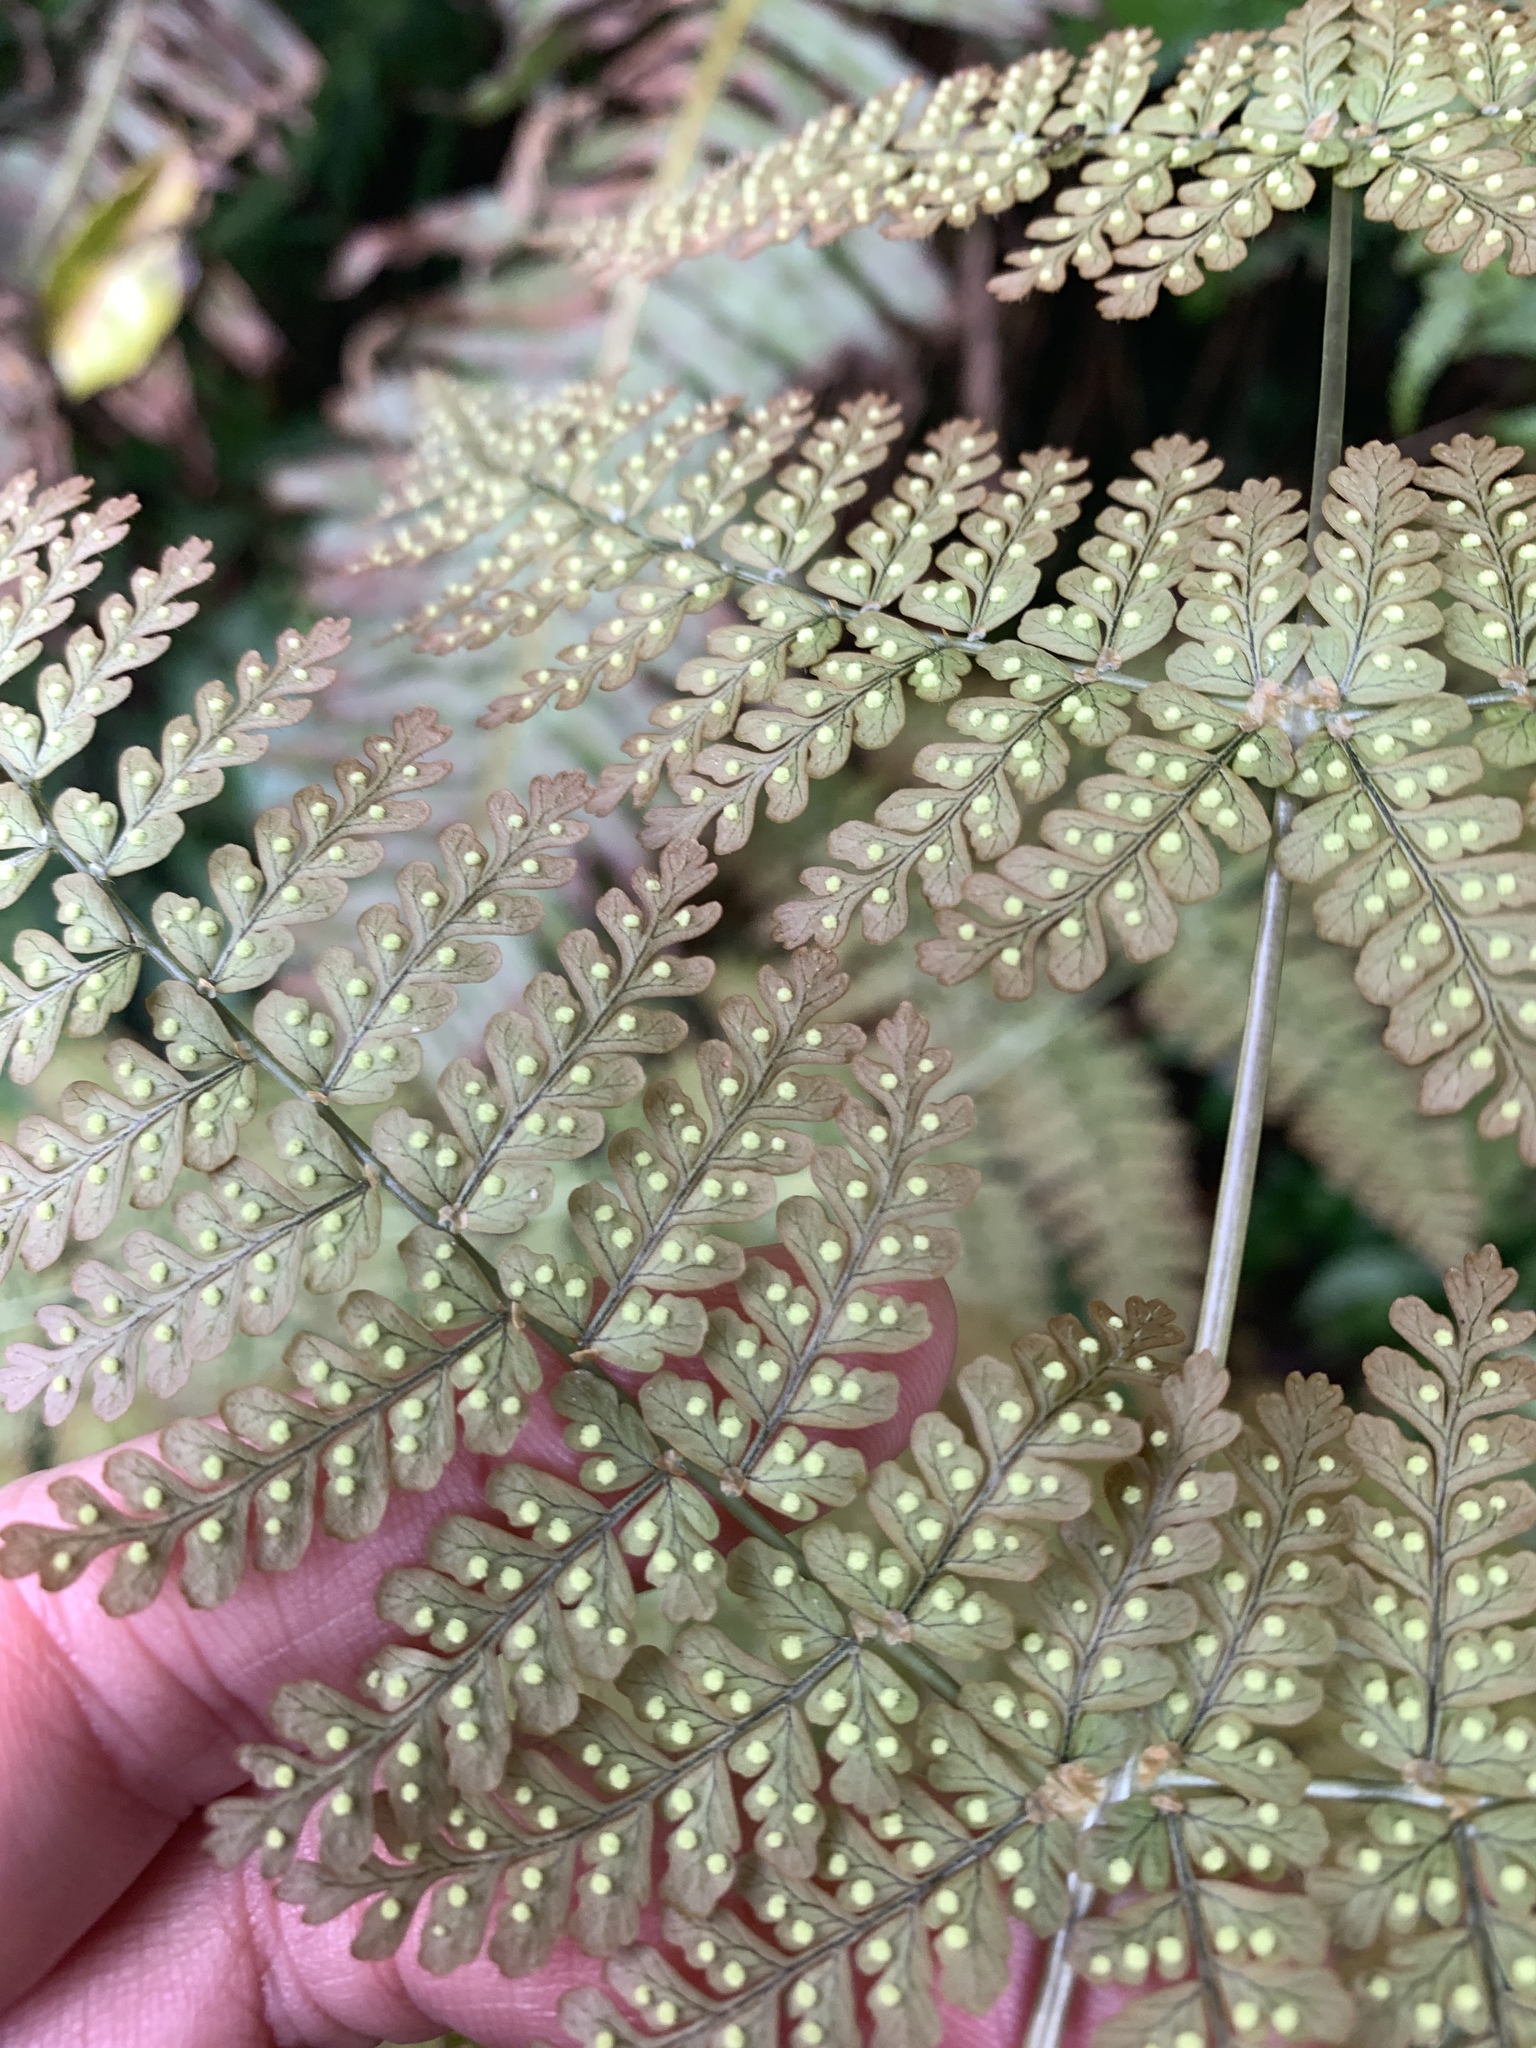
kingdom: Plantae
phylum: Tracheophyta
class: Polypodiopsida
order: Polypodiales
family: Dryopteridaceae
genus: Dryopteris
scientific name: Dryopteris paleolata
